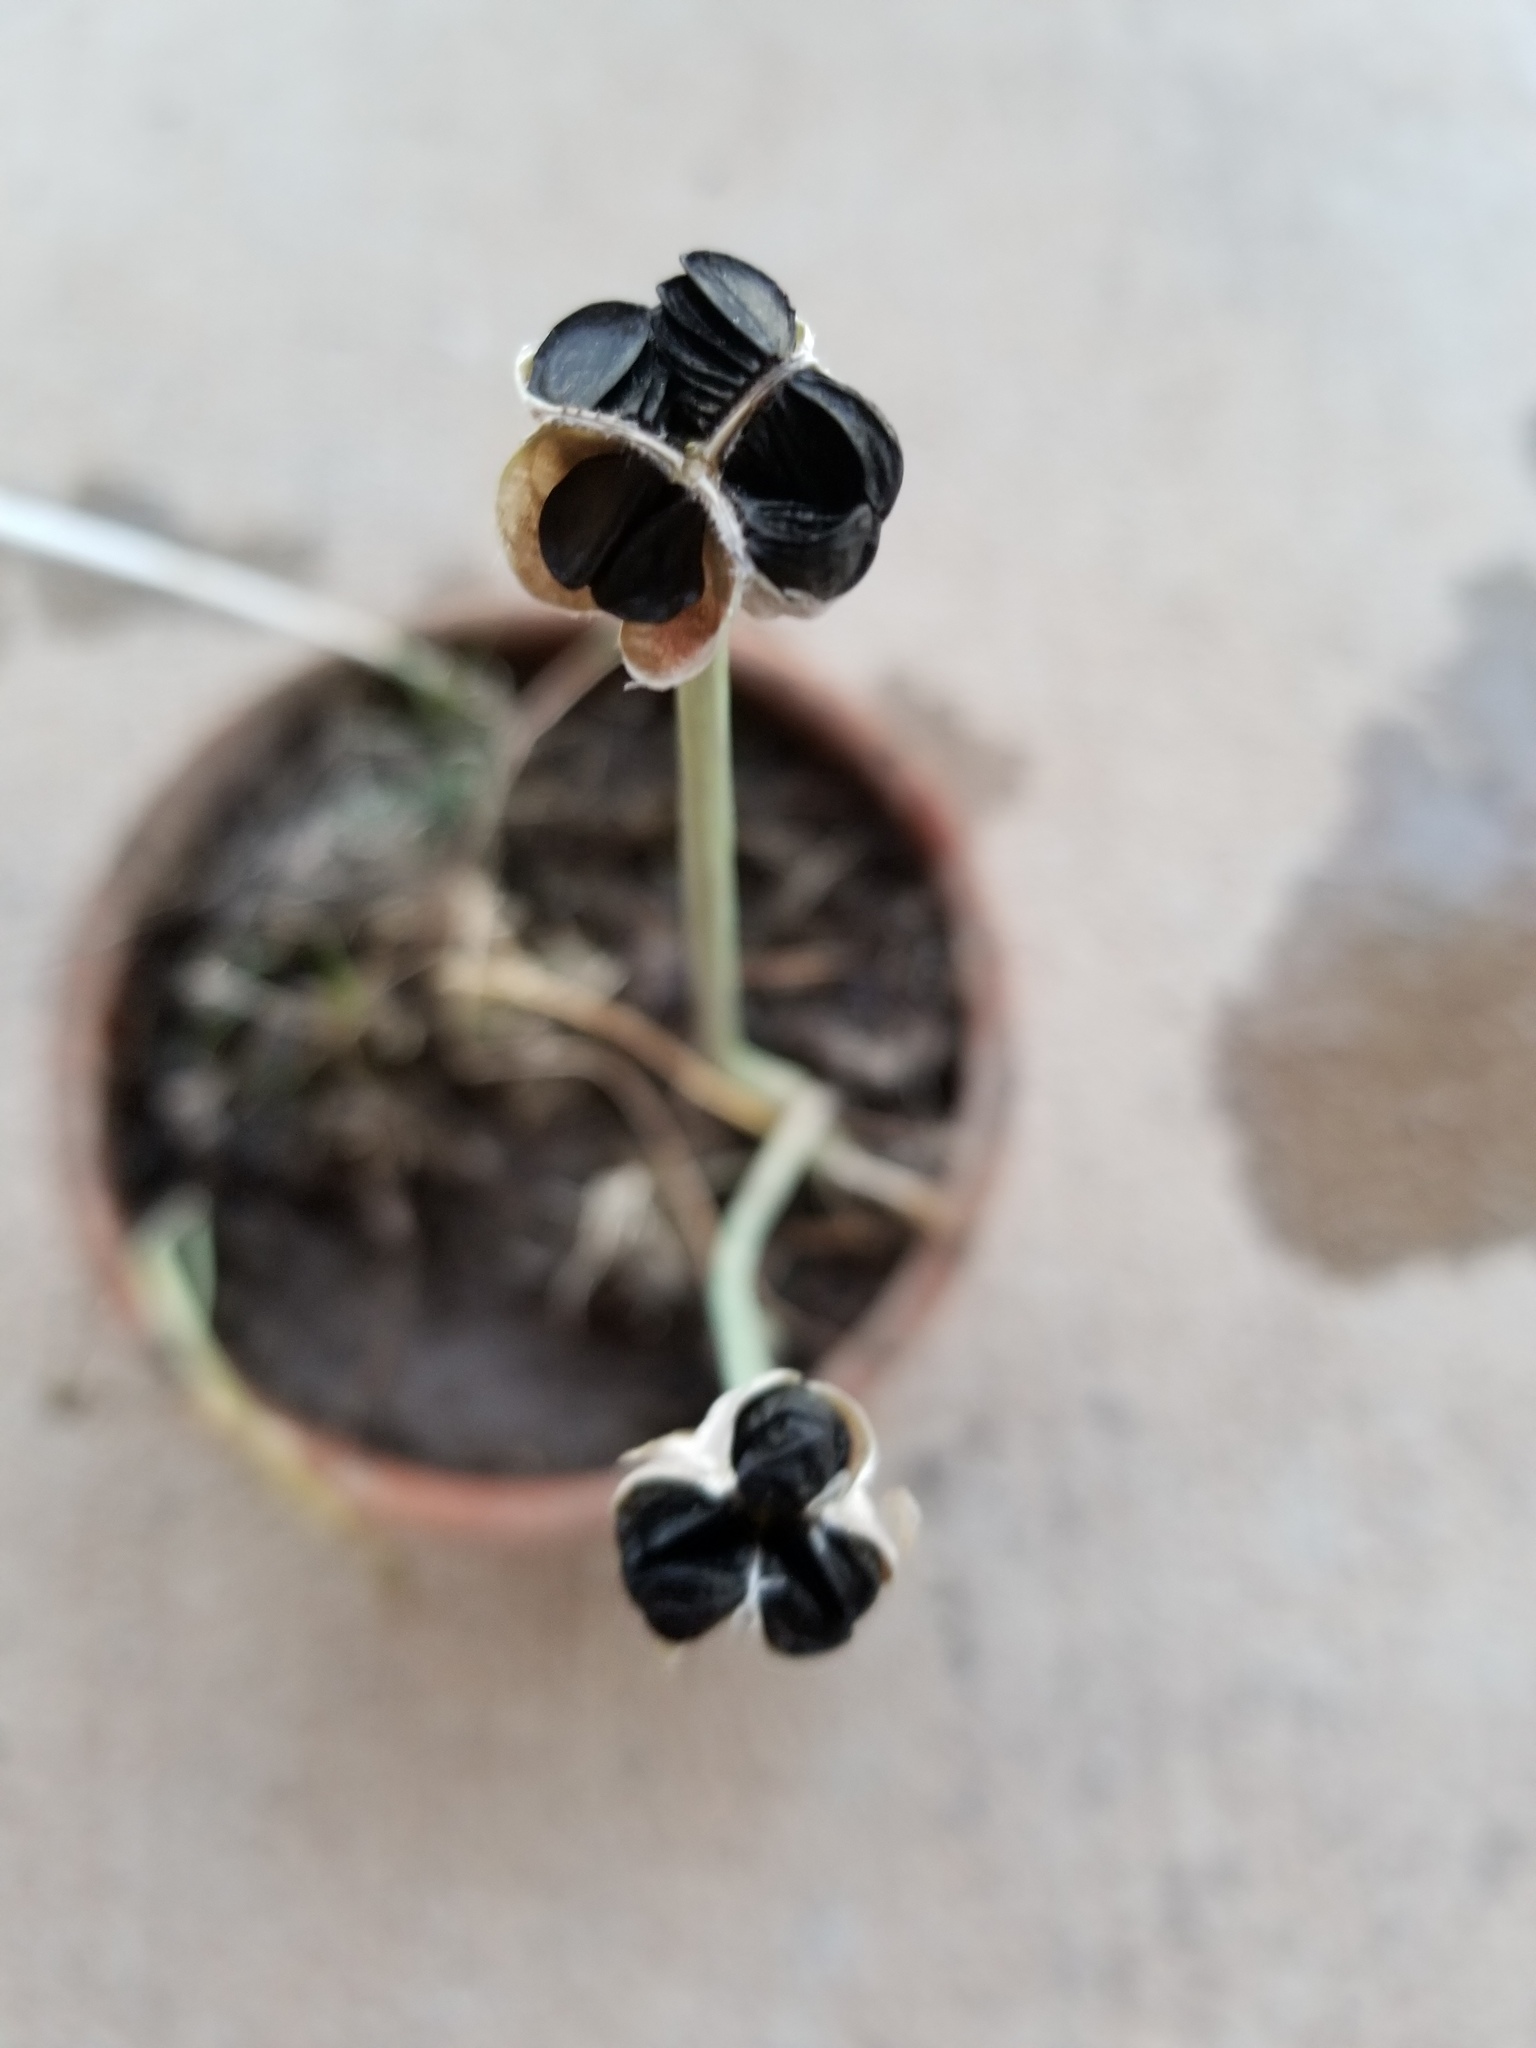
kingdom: Plantae
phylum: Tracheophyta
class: Liliopsida
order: Asparagales
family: Amaryllidaceae
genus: Zephyranthes
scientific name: Zephyranthes chlorosolen
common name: Evening rain-lily
